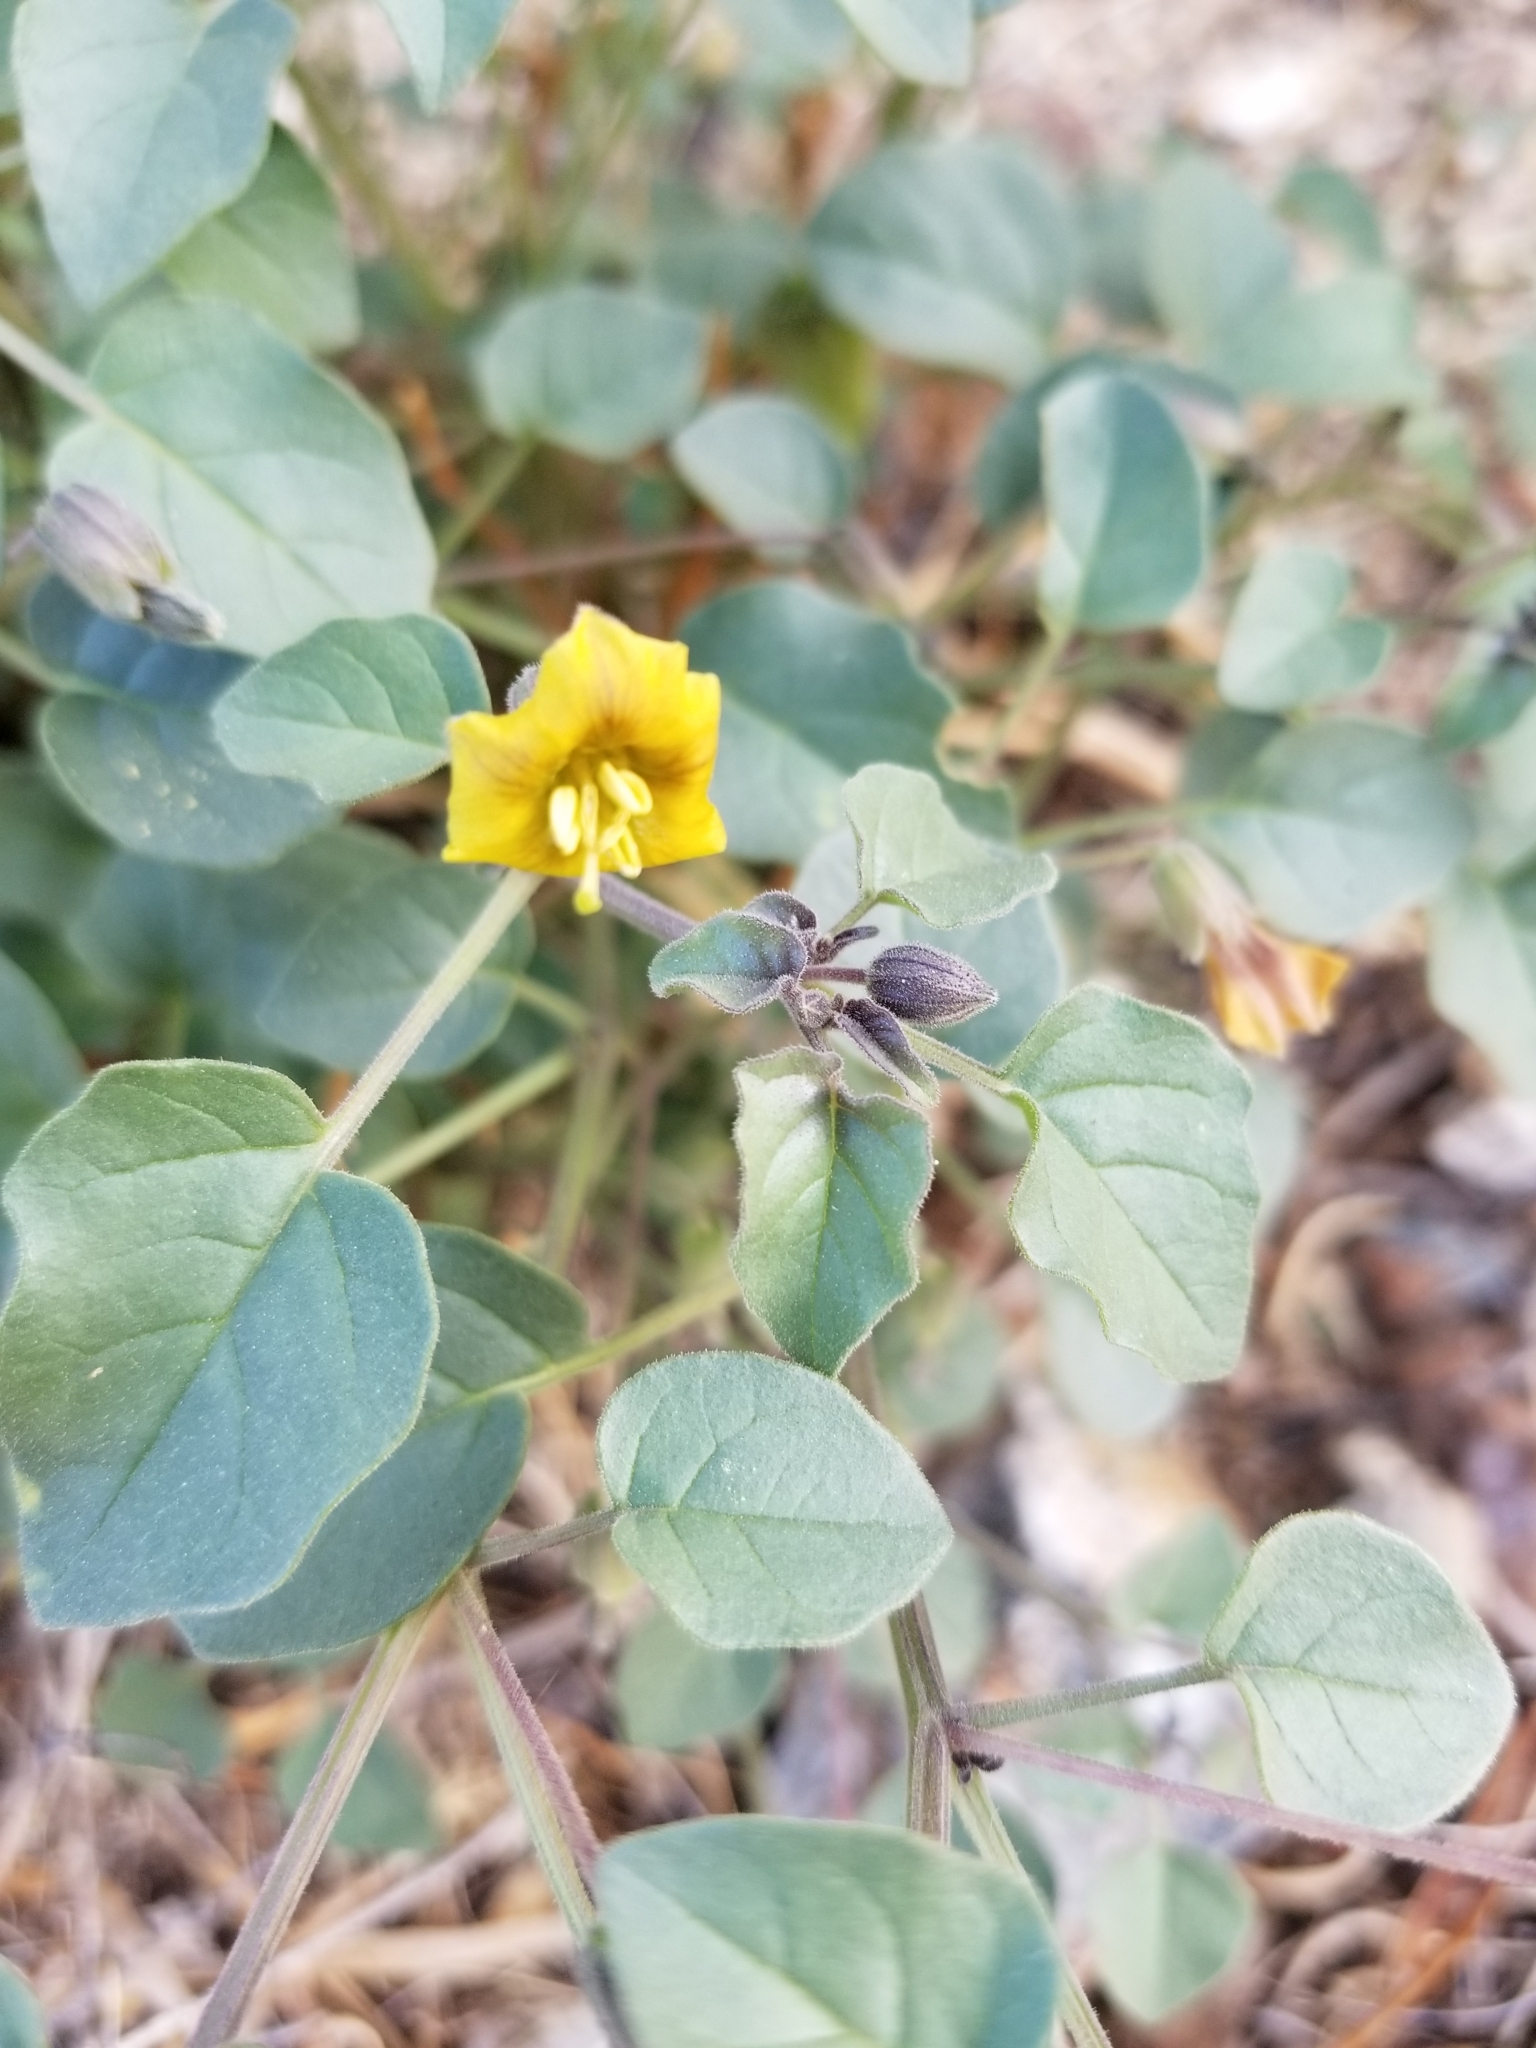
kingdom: Plantae
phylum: Tracheophyta
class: Magnoliopsida
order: Solanales
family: Solanaceae
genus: Physalis
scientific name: Physalis crassifolia
